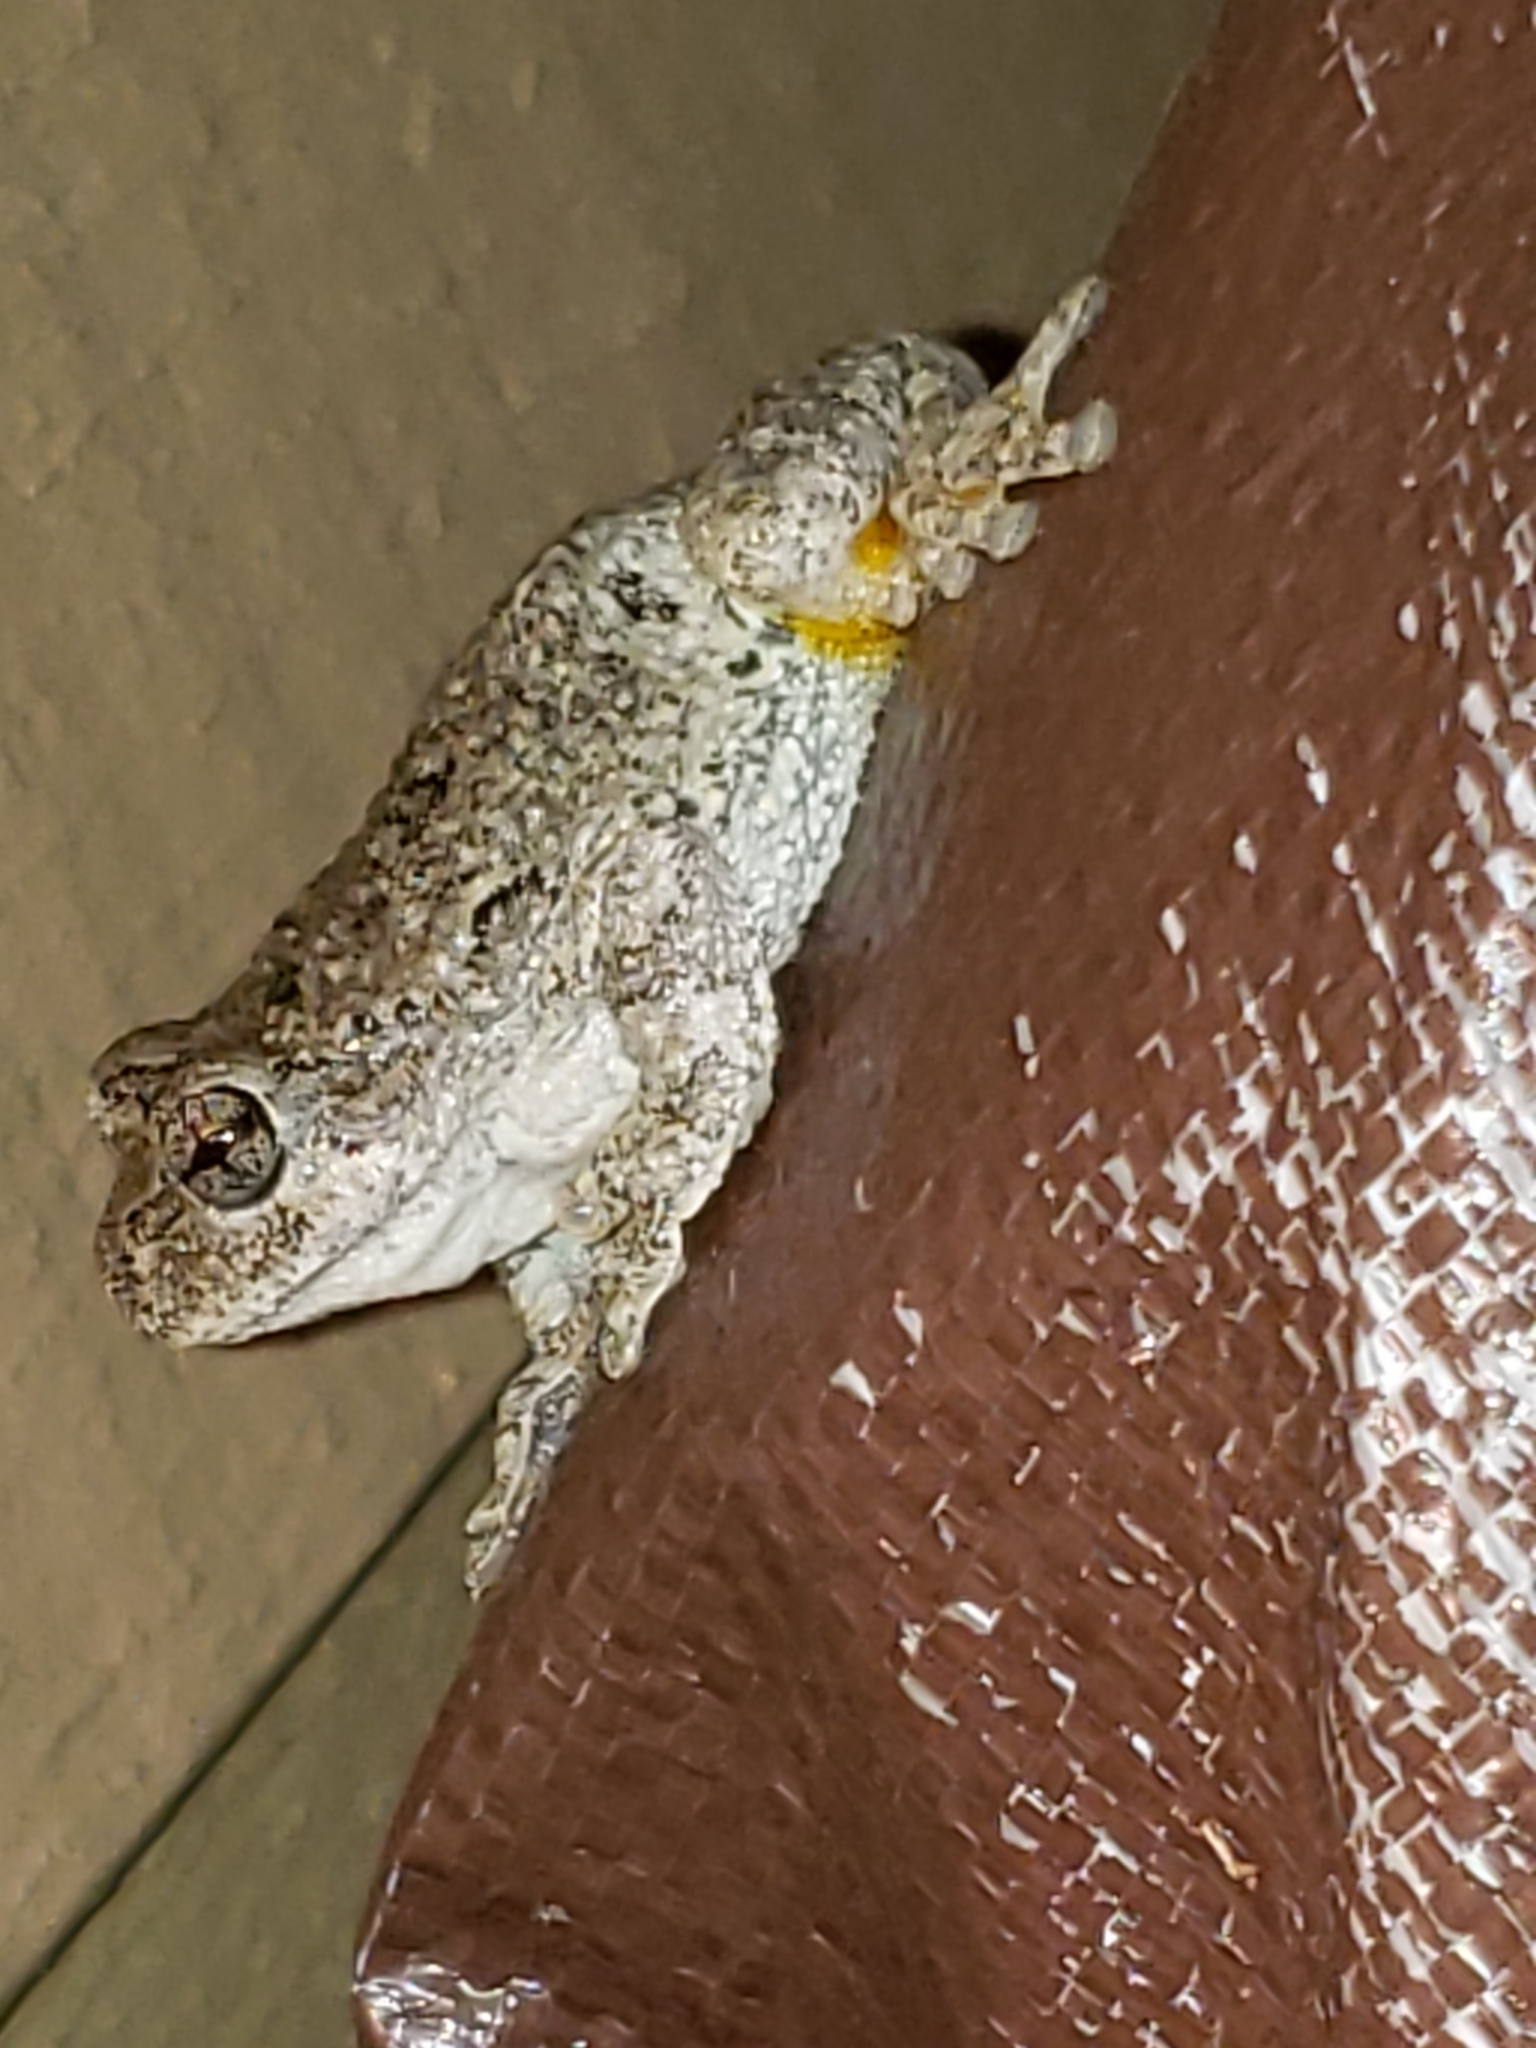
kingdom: Animalia
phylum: Chordata
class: Amphibia
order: Anura
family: Hylidae
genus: Hyla
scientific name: Hyla
